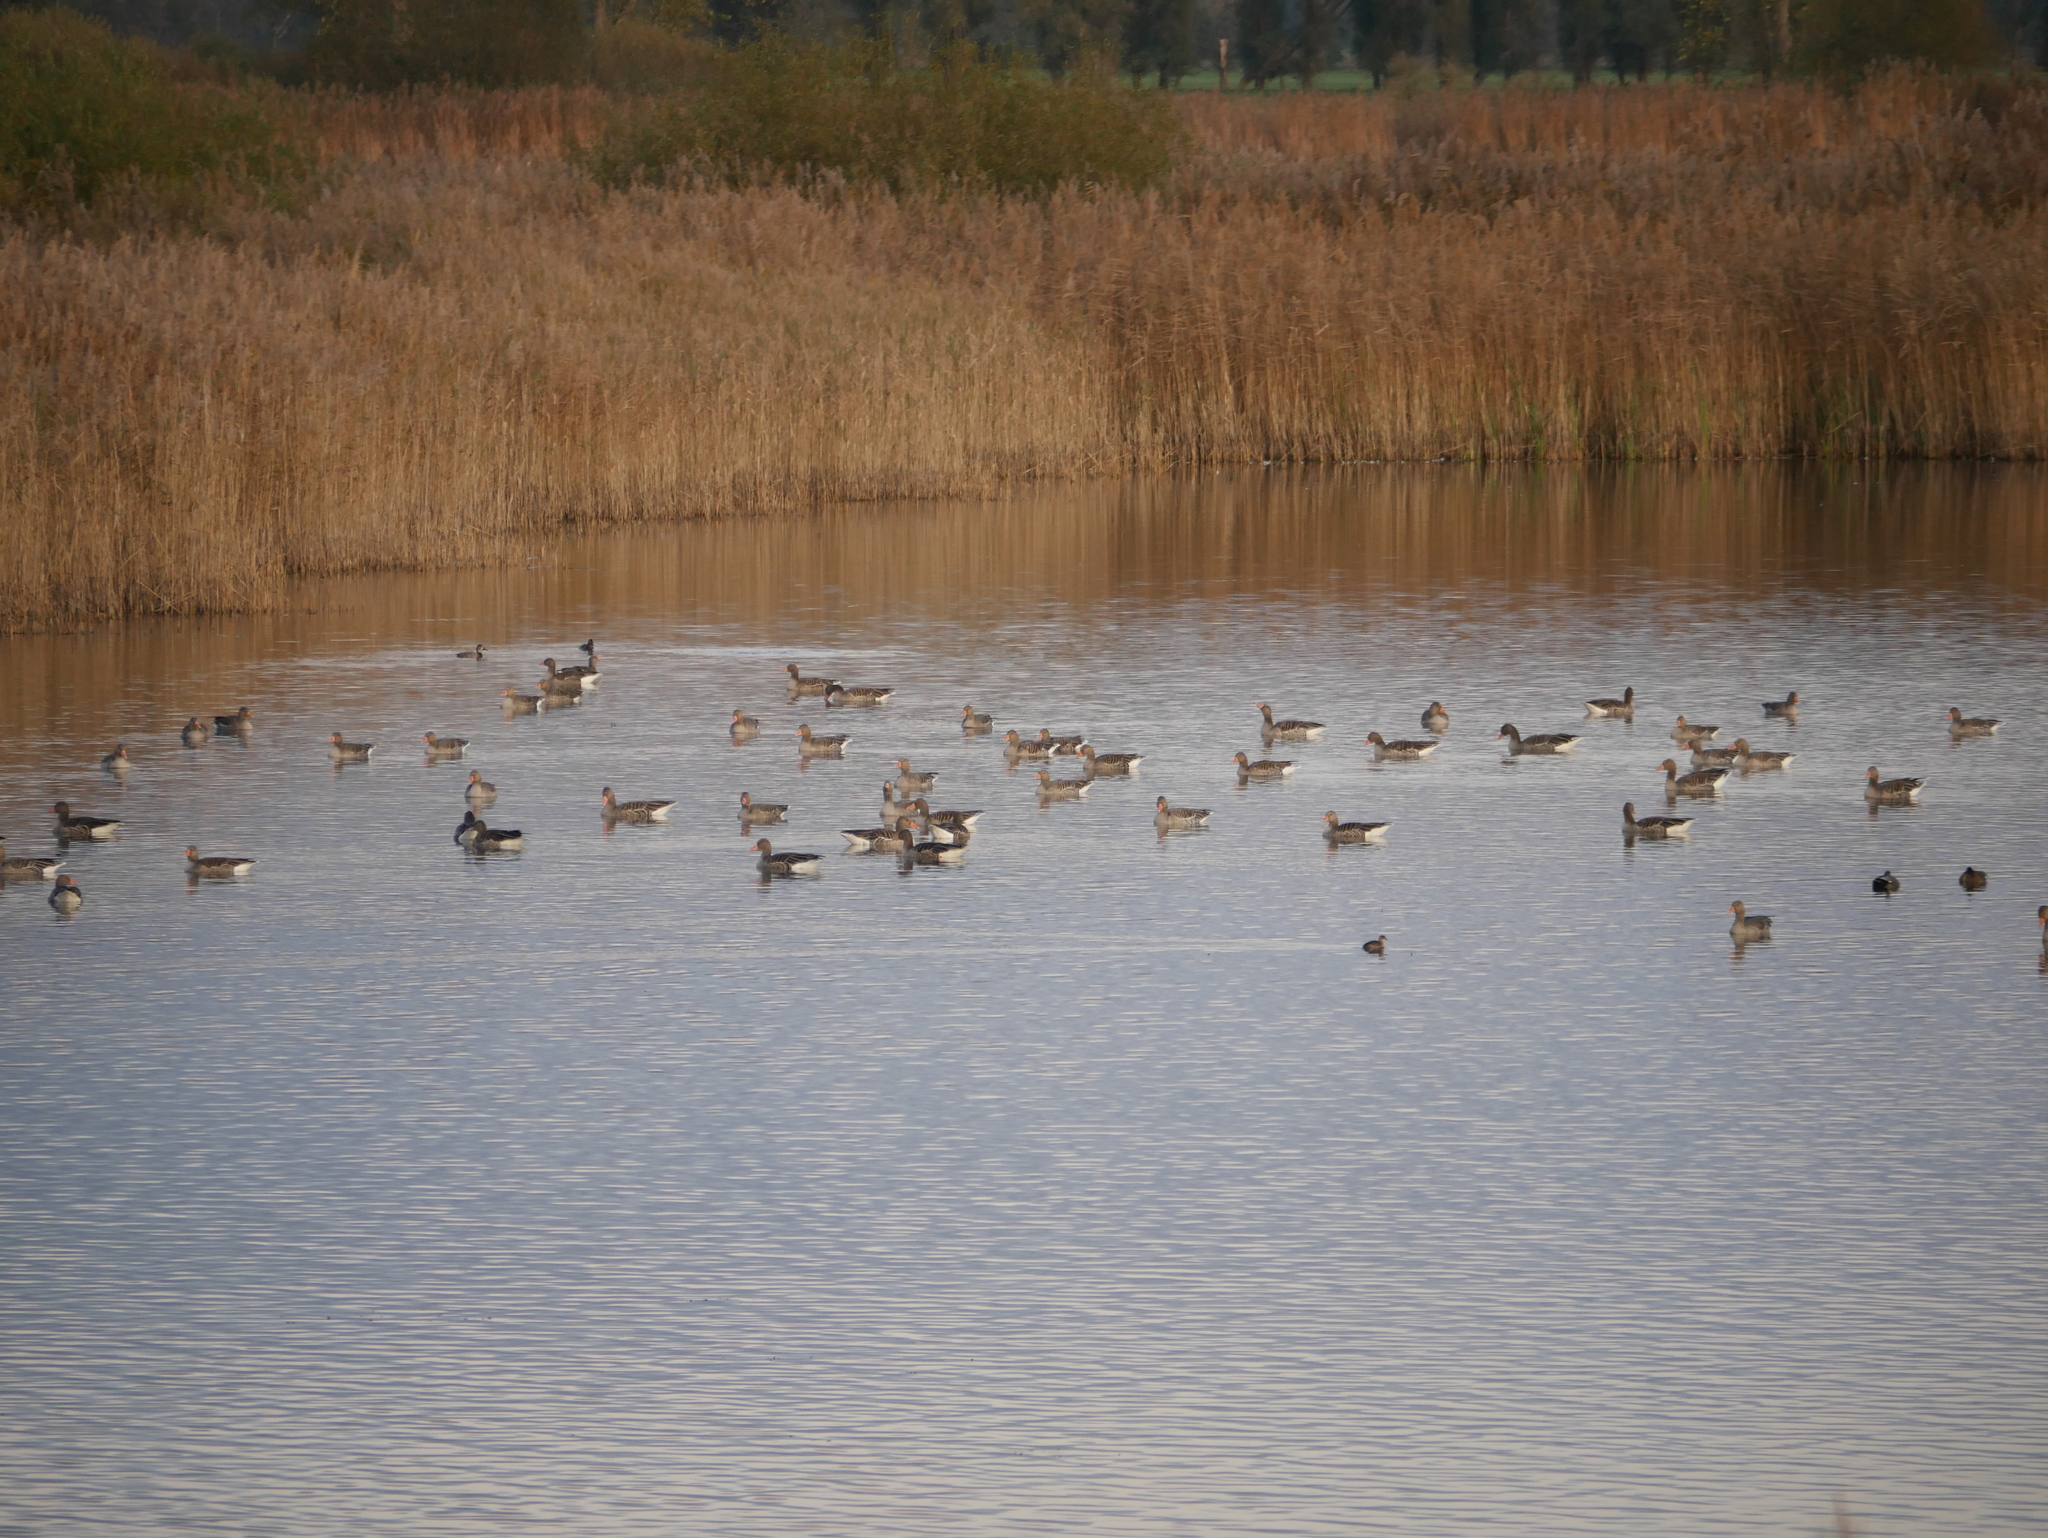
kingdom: Animalia
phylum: Chordata
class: Aves
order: Anseriformes
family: Anatidae
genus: Anser
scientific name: Anser anser
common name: Greylag goose
